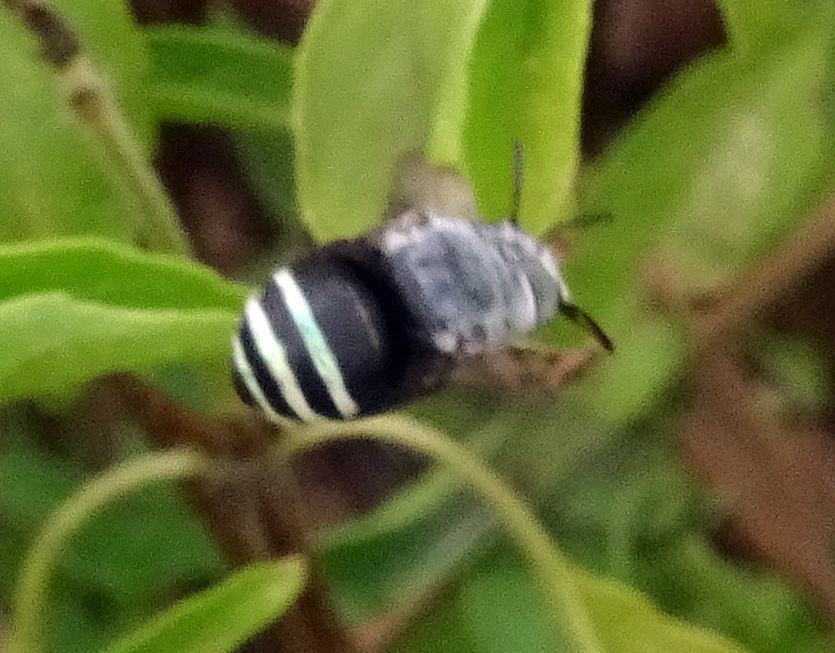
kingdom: Animalia
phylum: Arthropoda
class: Insecta
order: Hymenoptera
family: Apidae
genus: Amegilla
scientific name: Amegilla binghami
